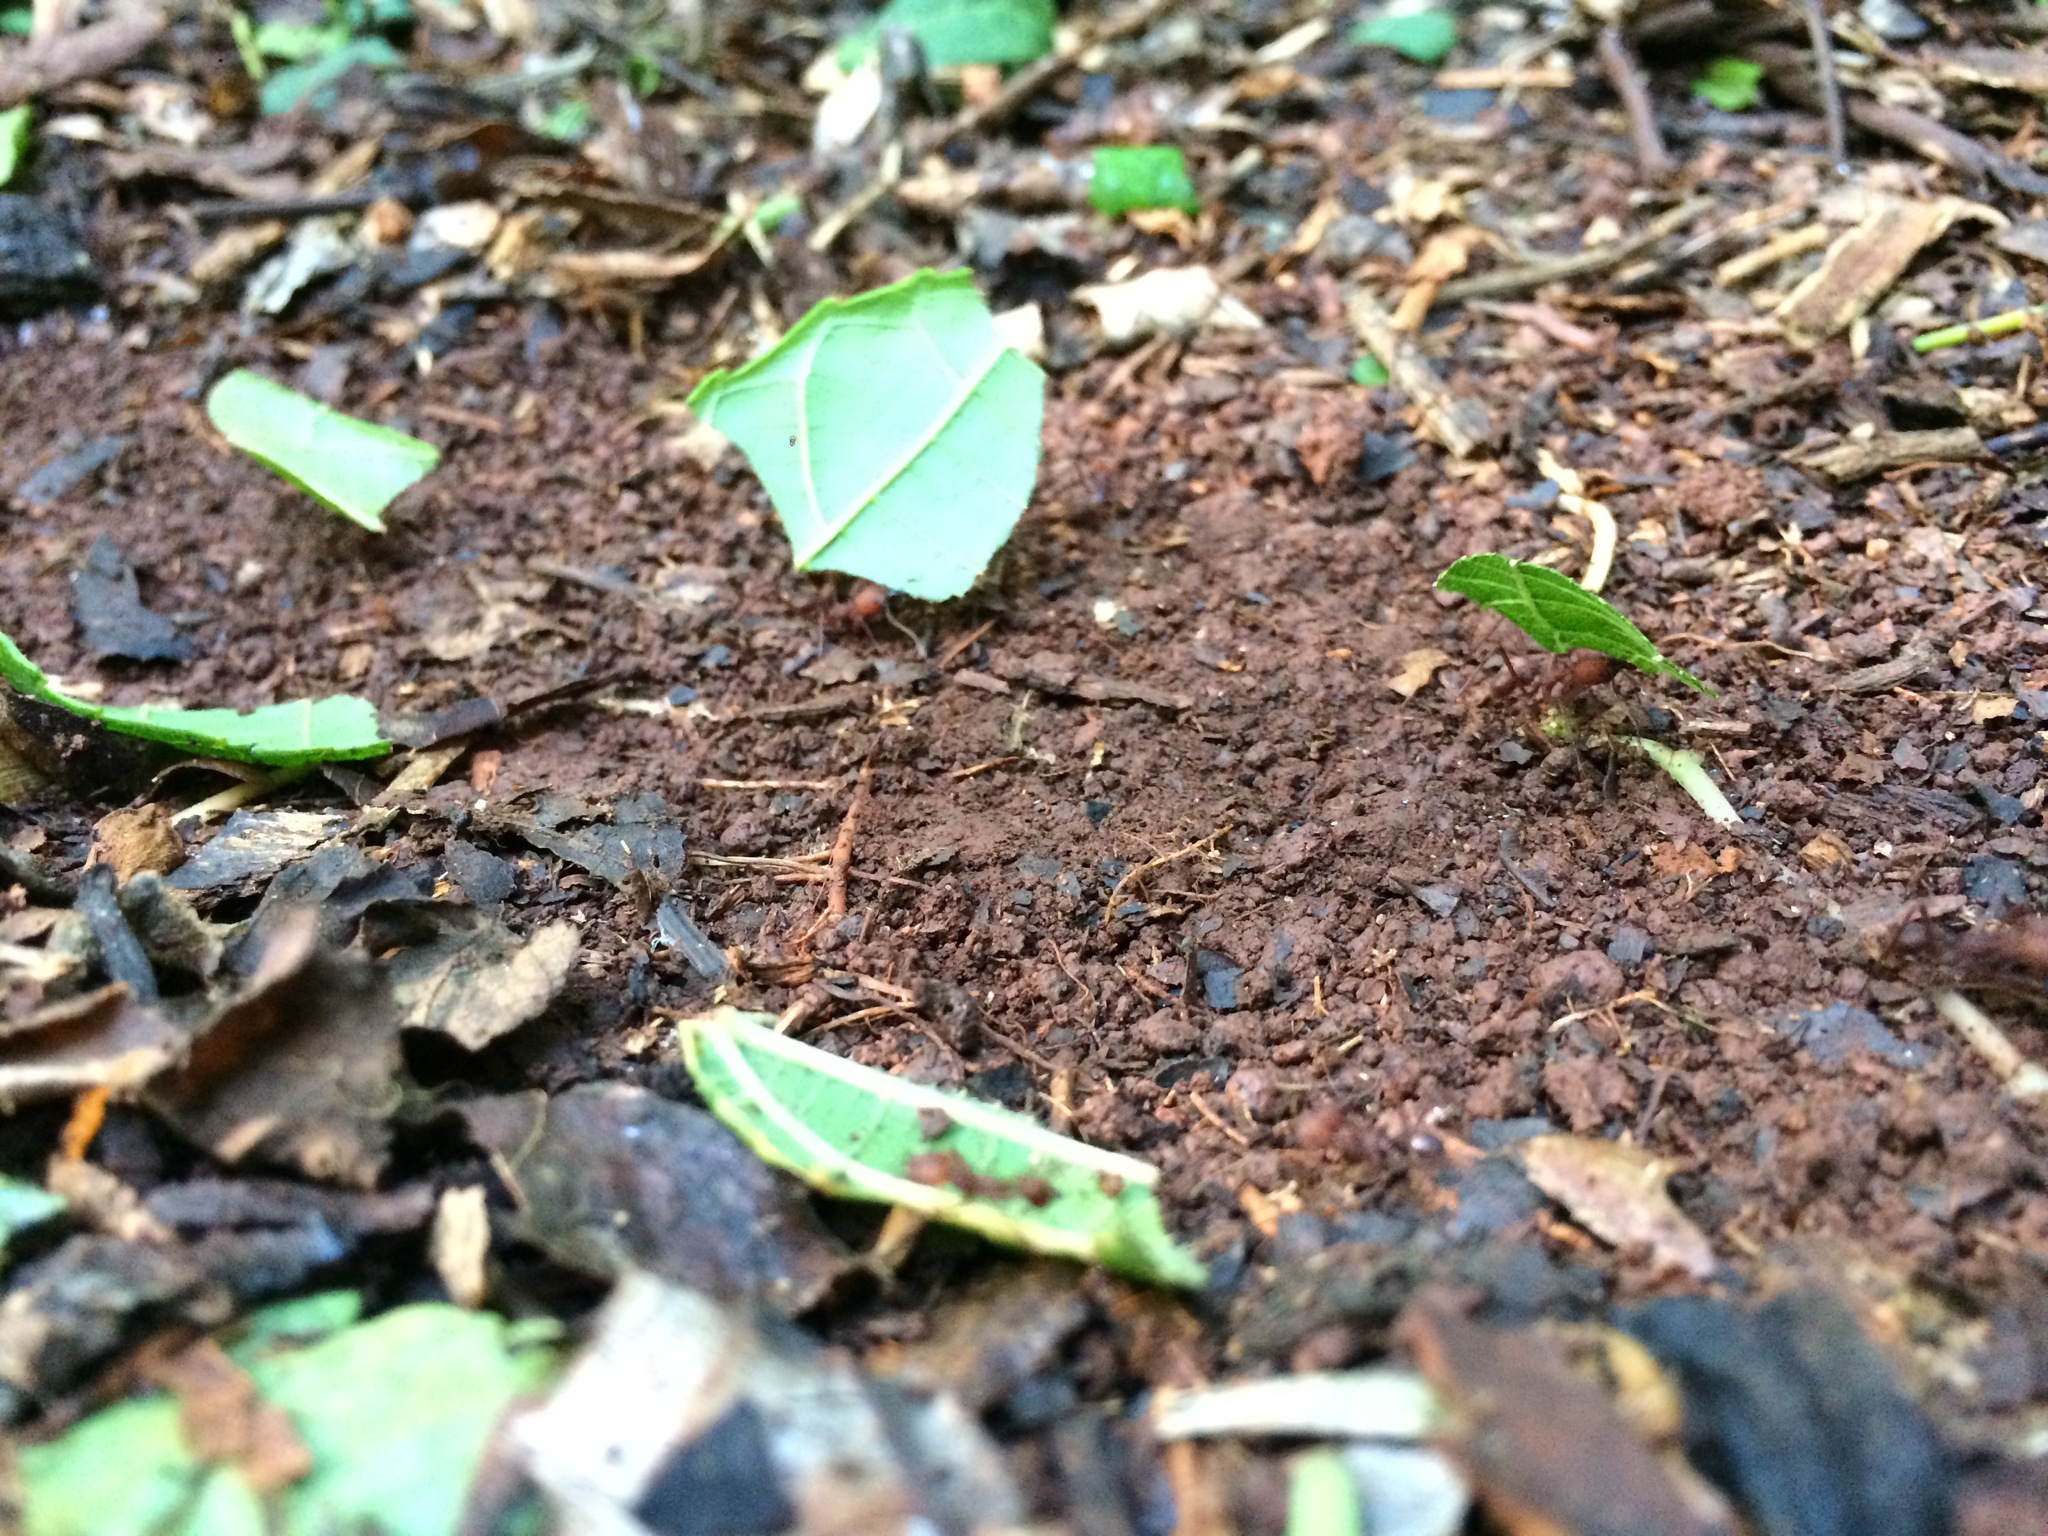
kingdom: Animalia
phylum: Arthropoda
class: Insecta
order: Hymenoptera
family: Formicidae
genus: Atta
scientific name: Atta sexdens
